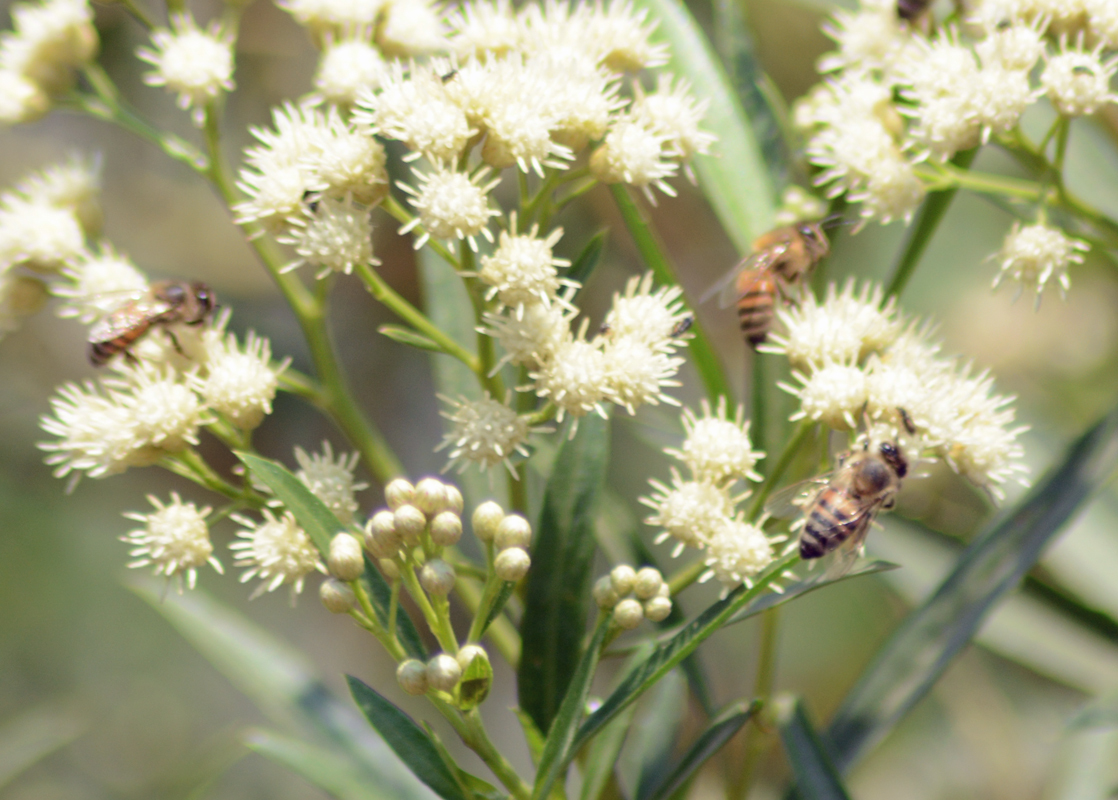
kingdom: Animalia
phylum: Arthropoda
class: Insecta
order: Hymenoptera
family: Apidae
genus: Apis
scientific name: Apis mellifera
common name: Honey bee
